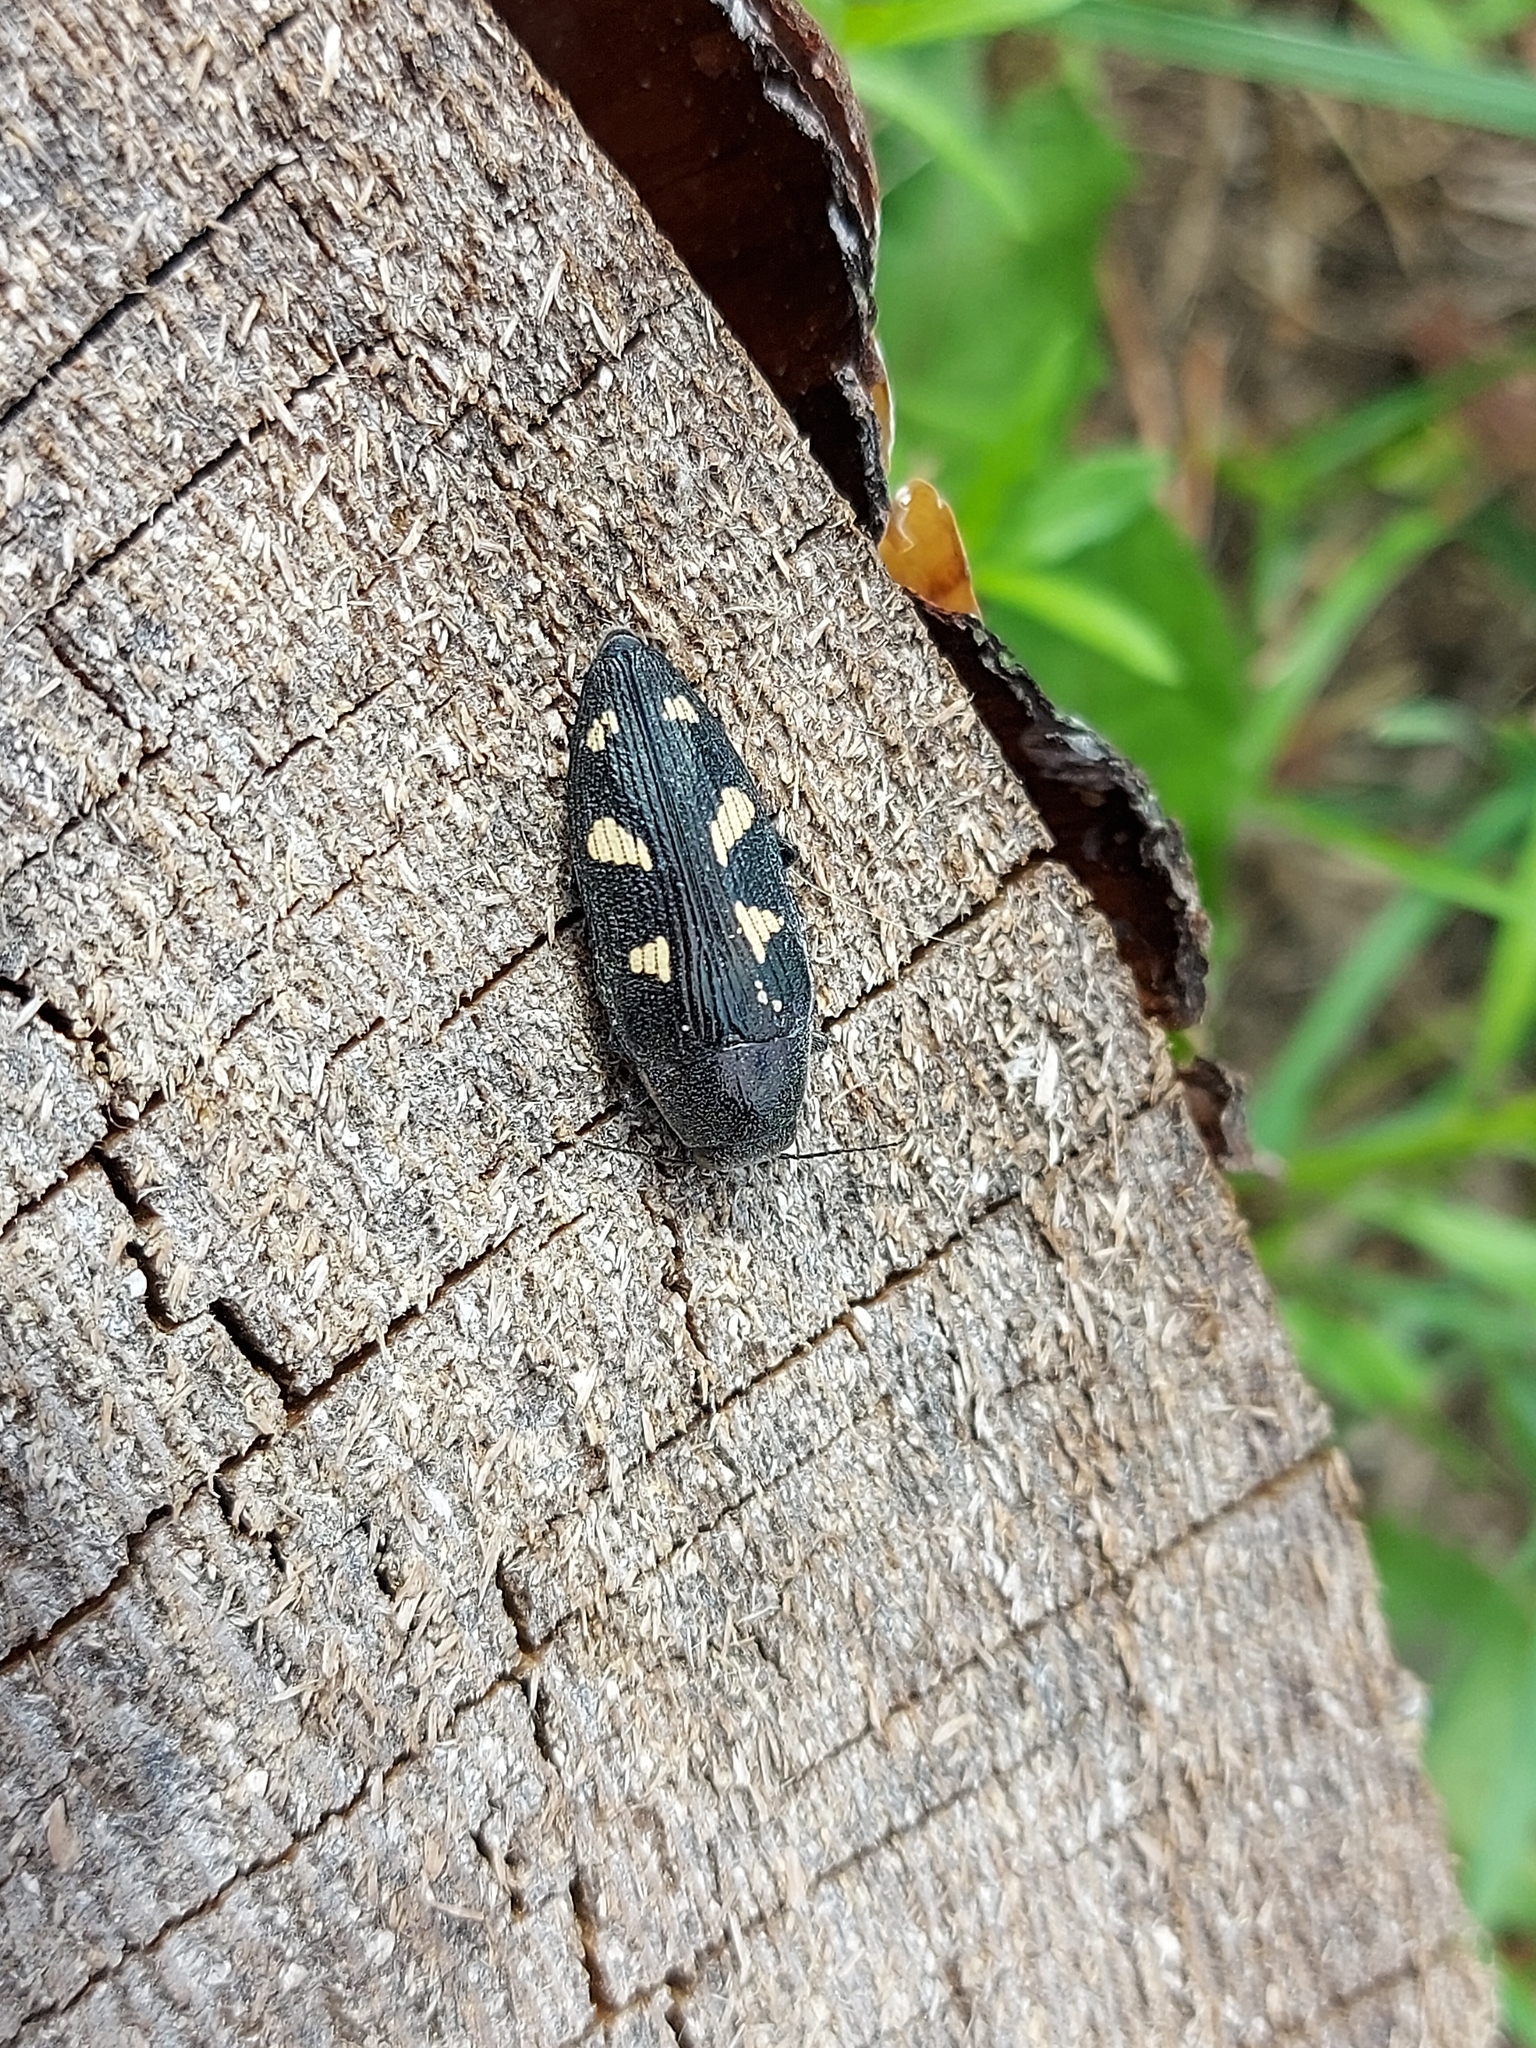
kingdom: Animalia
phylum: Arthropoda
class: Insecta
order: Coleoptera
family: Buprestidae
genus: Buprestis
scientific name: Buprestis novemmaculata
